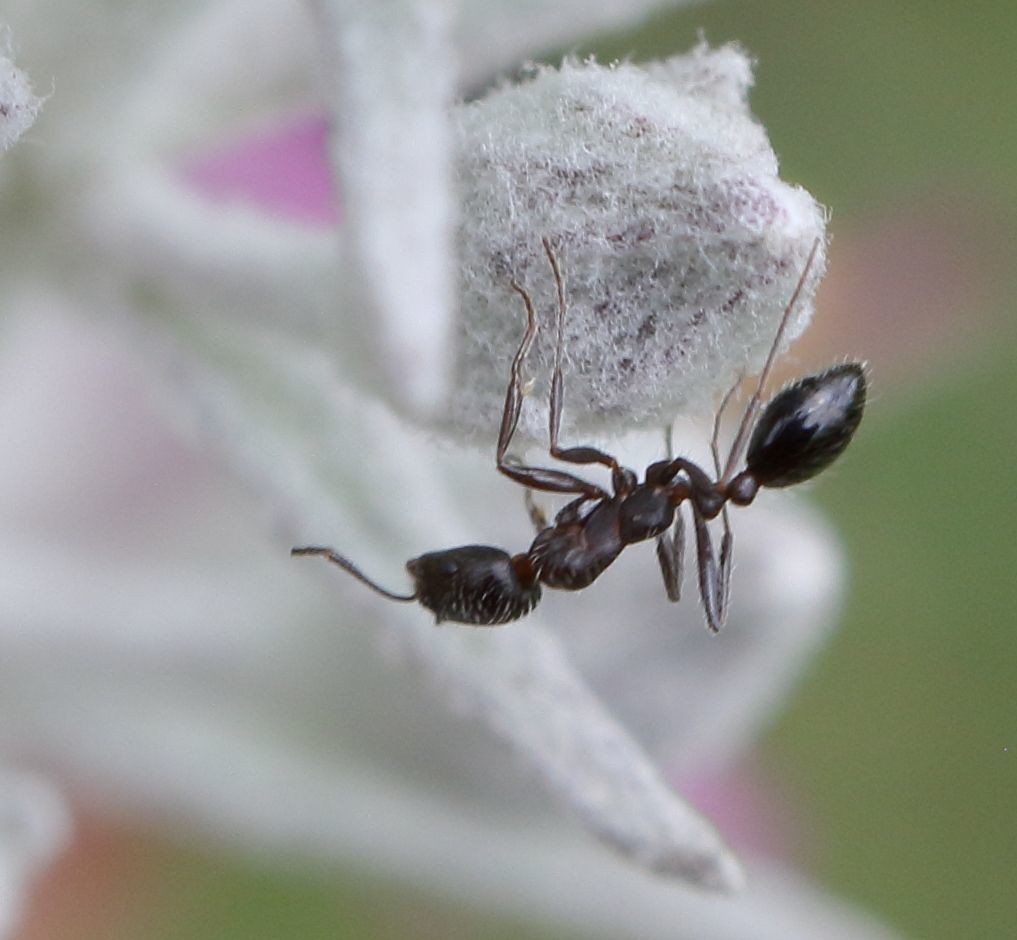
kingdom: Animalia
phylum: Arthropoda
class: Insecta
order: Hymenoptera
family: Formicidae
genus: Monomorium
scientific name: Monomorium junodi
